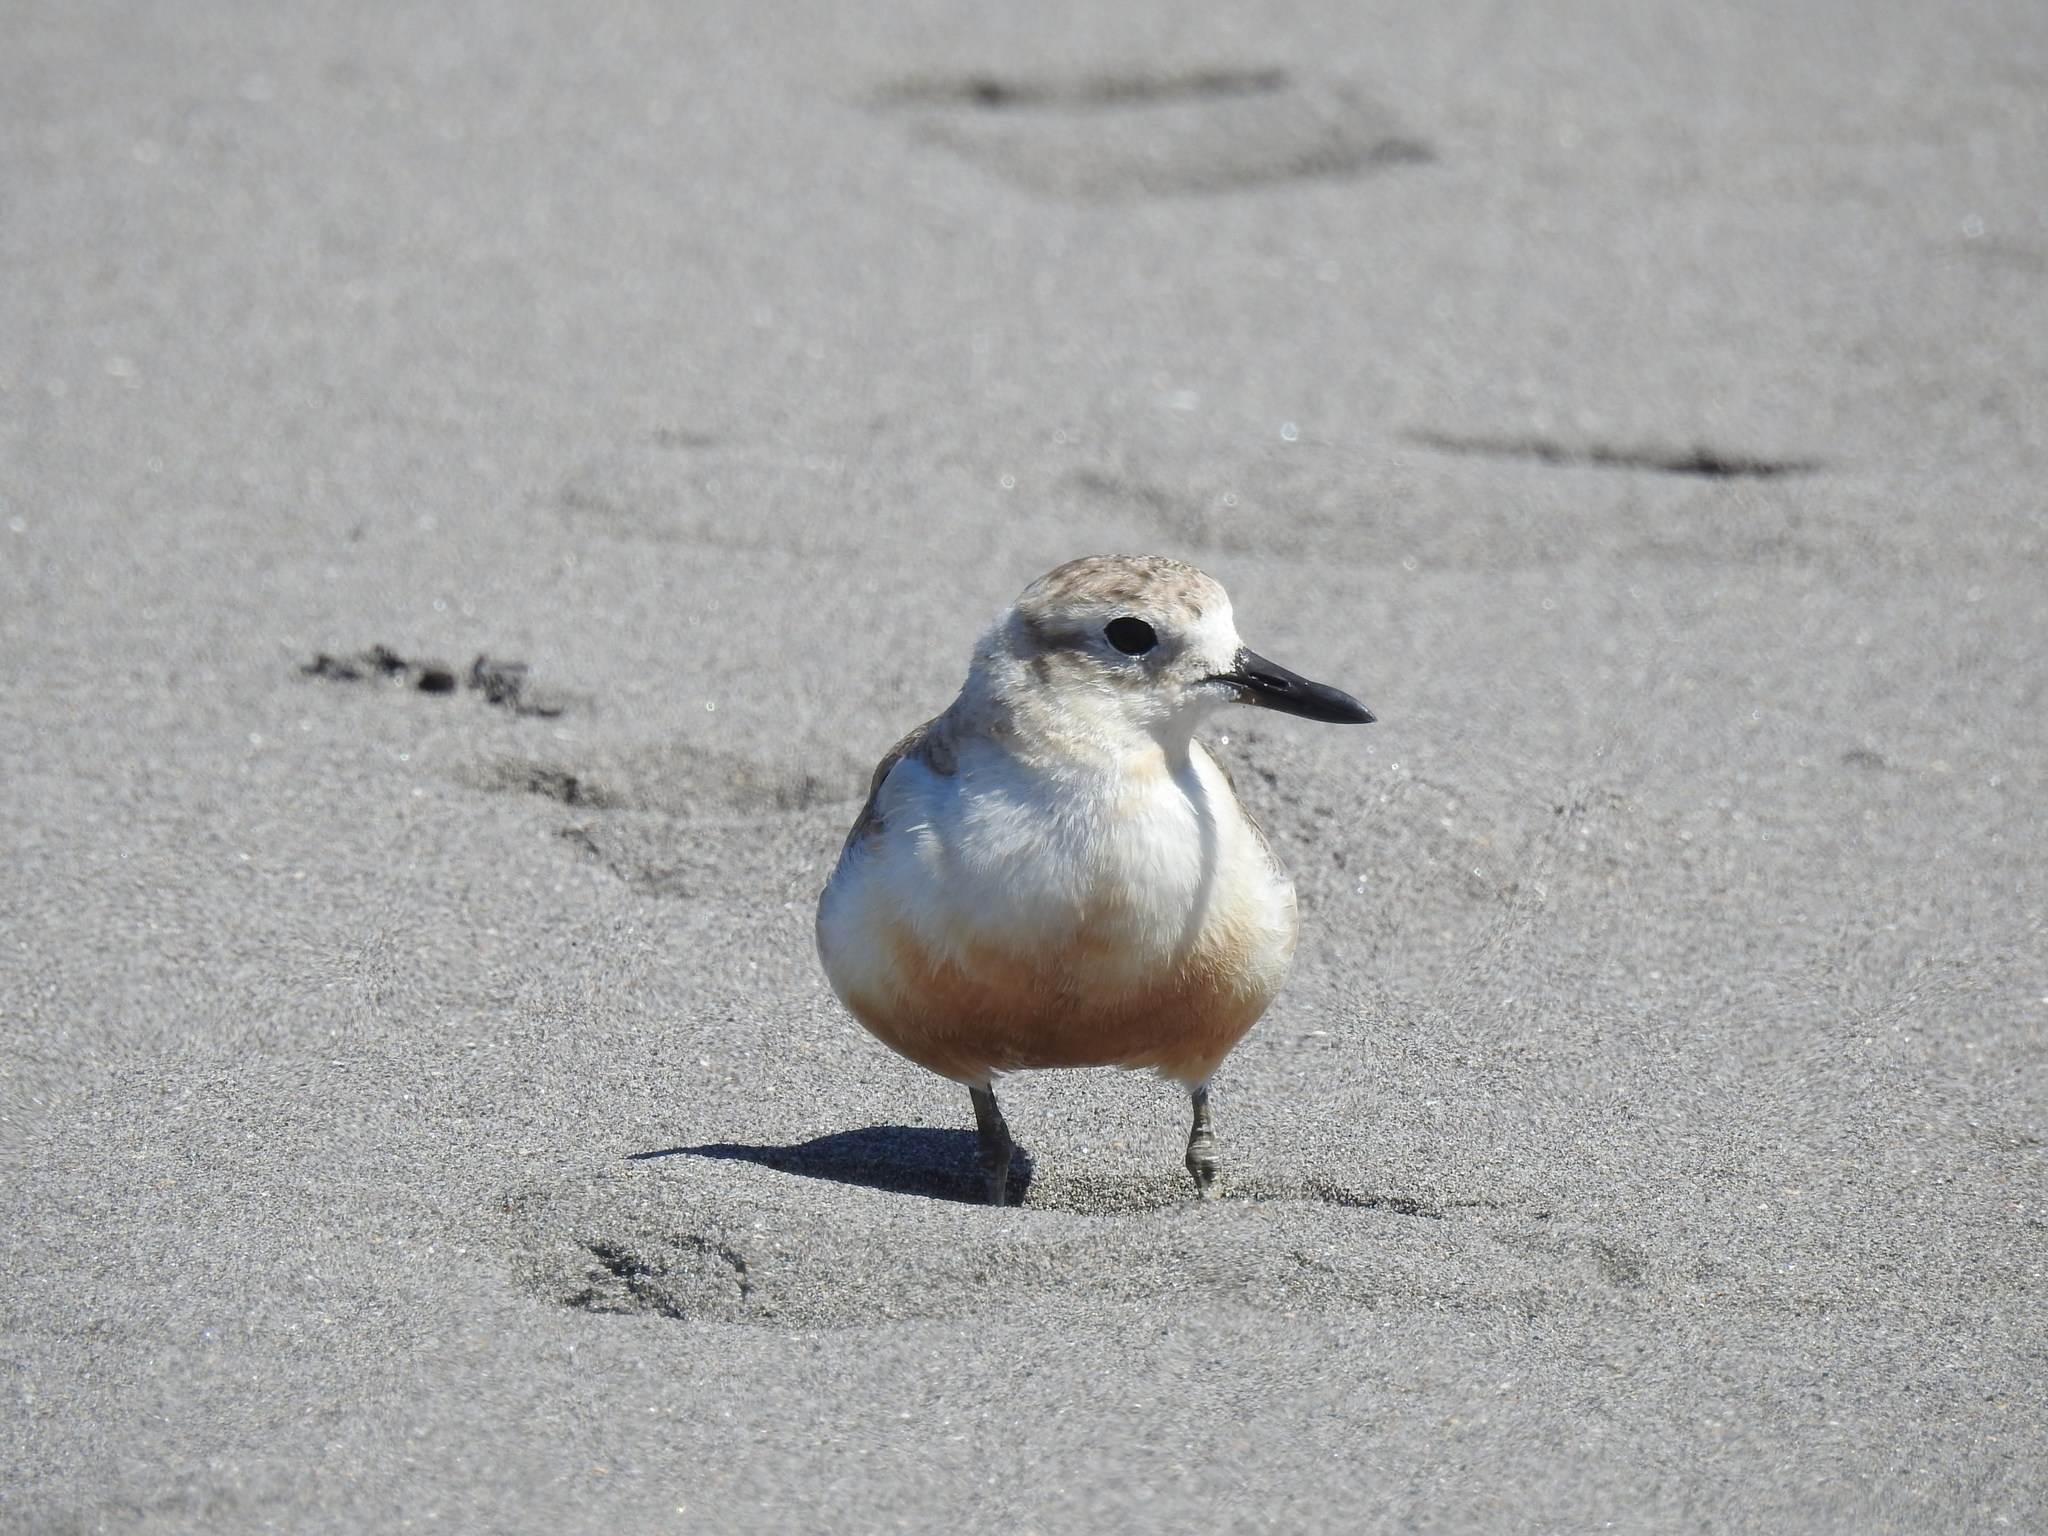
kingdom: Animalia
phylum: Chordata
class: Aves
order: Charadriiformes
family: Charadriidae
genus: Anarhynchus
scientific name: Anarhynchus
